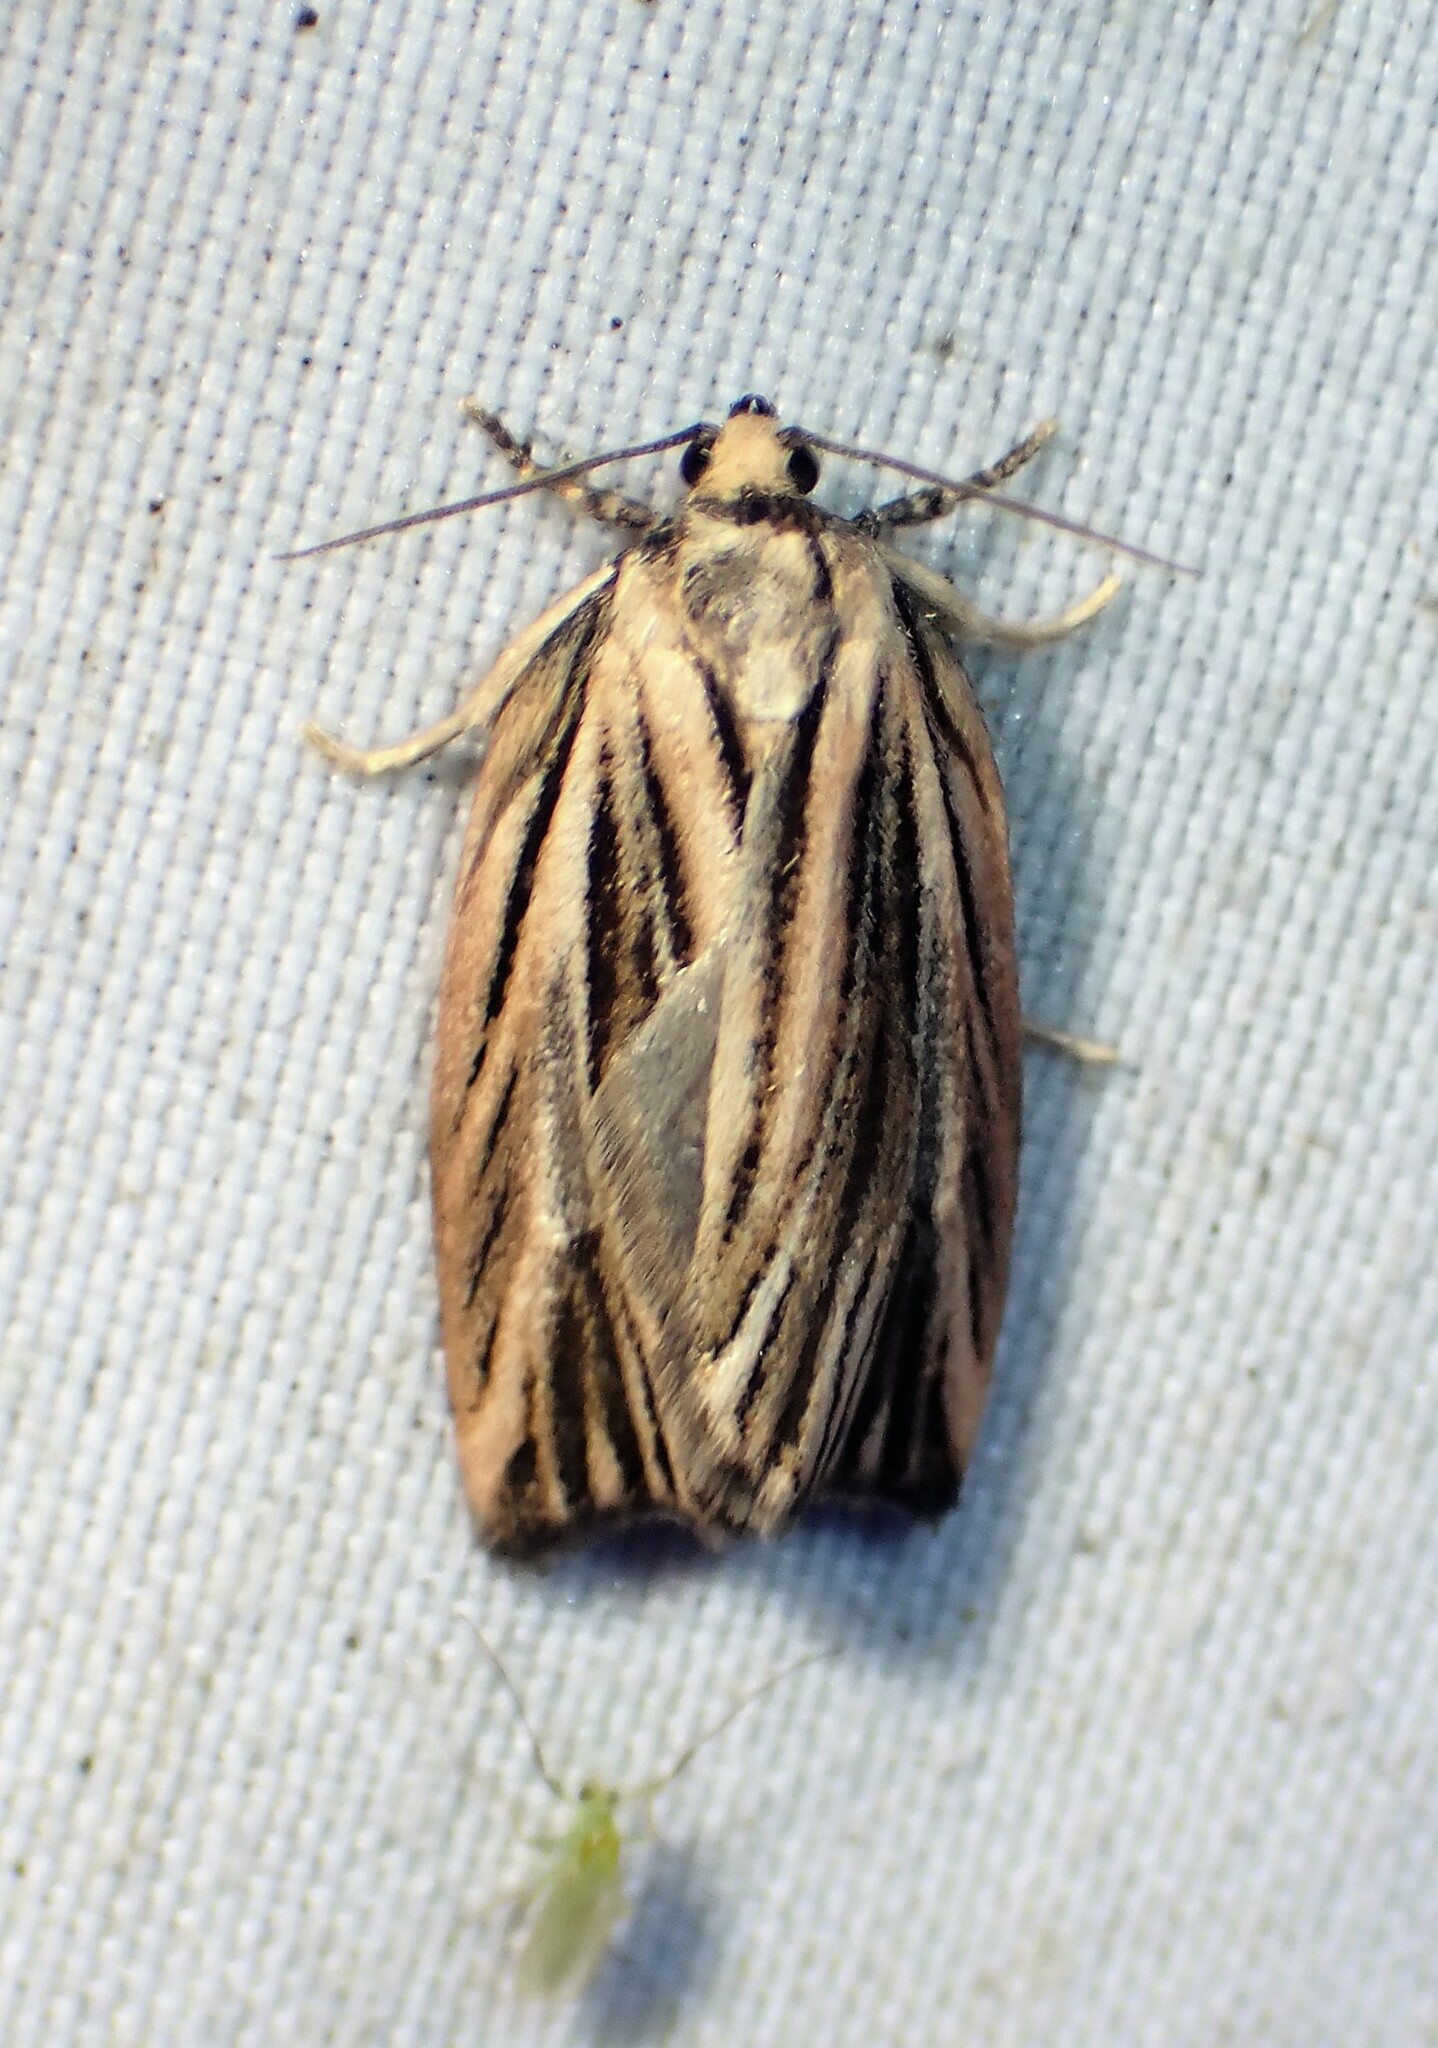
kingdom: Animalia
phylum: Arthropoda
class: Insecta
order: Lepidoptera
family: Tortricidae
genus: Archips
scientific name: Archips strianus
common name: Striated tortrix moth
